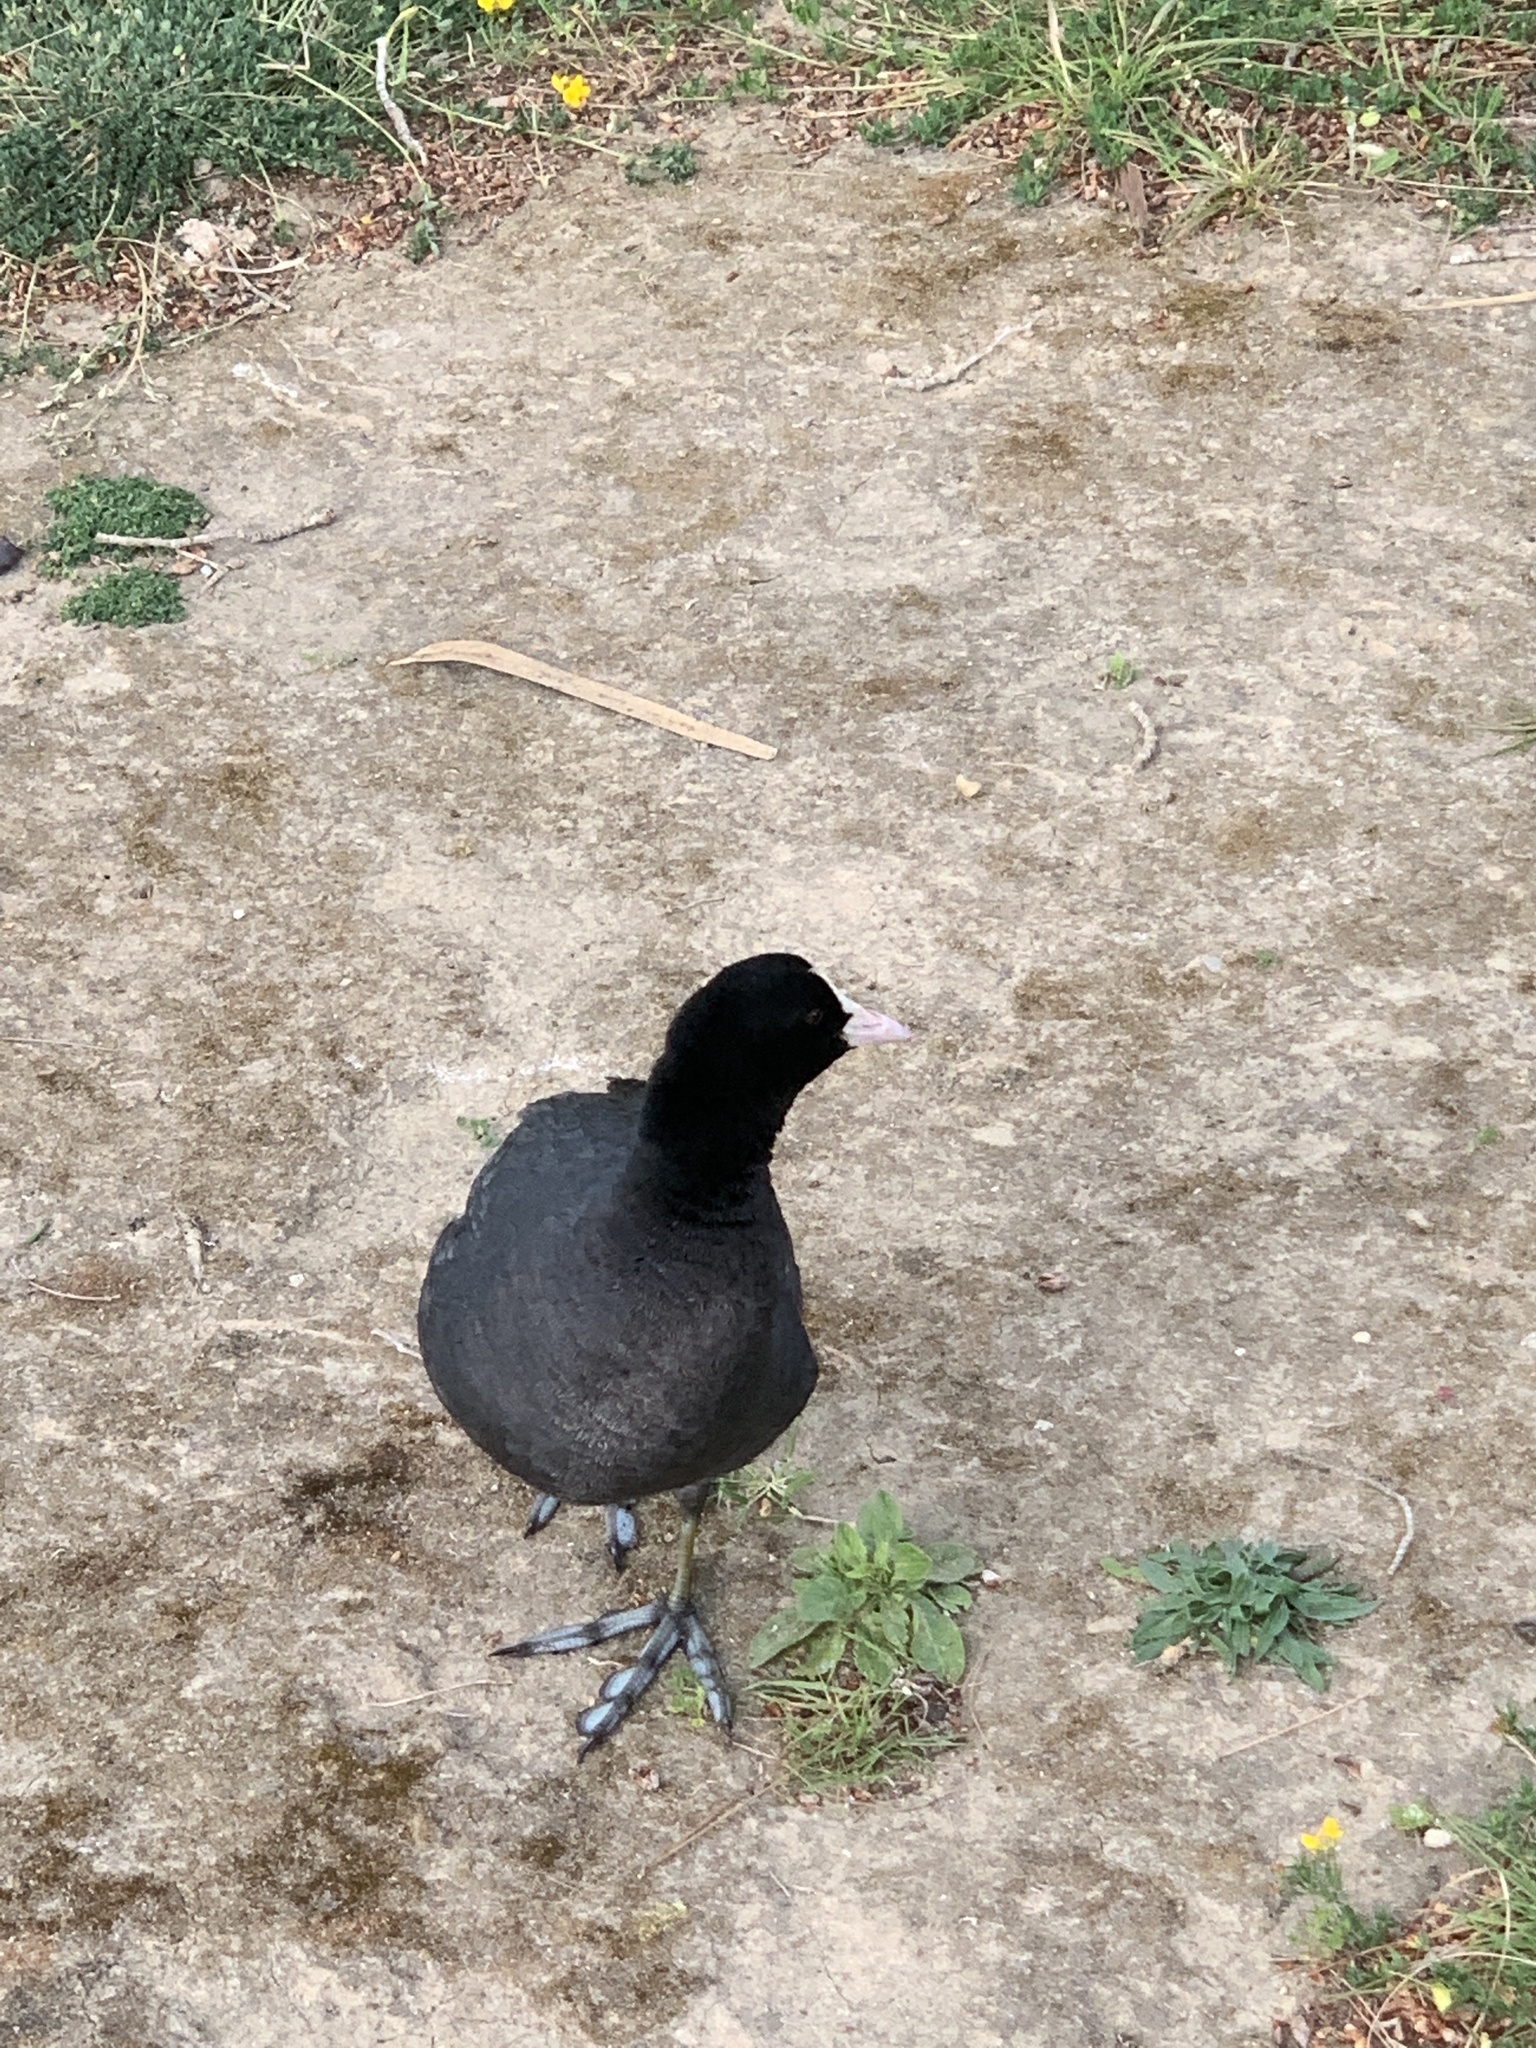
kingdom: Animalia
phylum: Chordata
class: Aves
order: Gruiformes
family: Rallidae
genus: Fulica
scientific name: Fulica atra
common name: Eurasian coot
